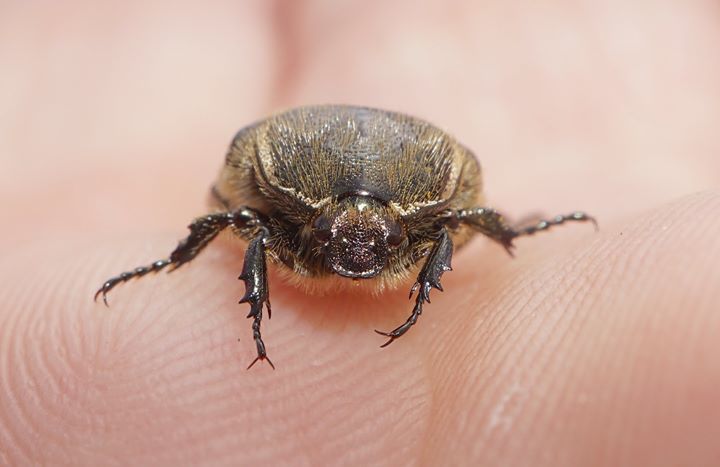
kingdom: Animalia
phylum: Arthropoda
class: Insecta
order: Coleoptera
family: Scarabaeidae
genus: Euphoria
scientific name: Euphoria sepulcralis
